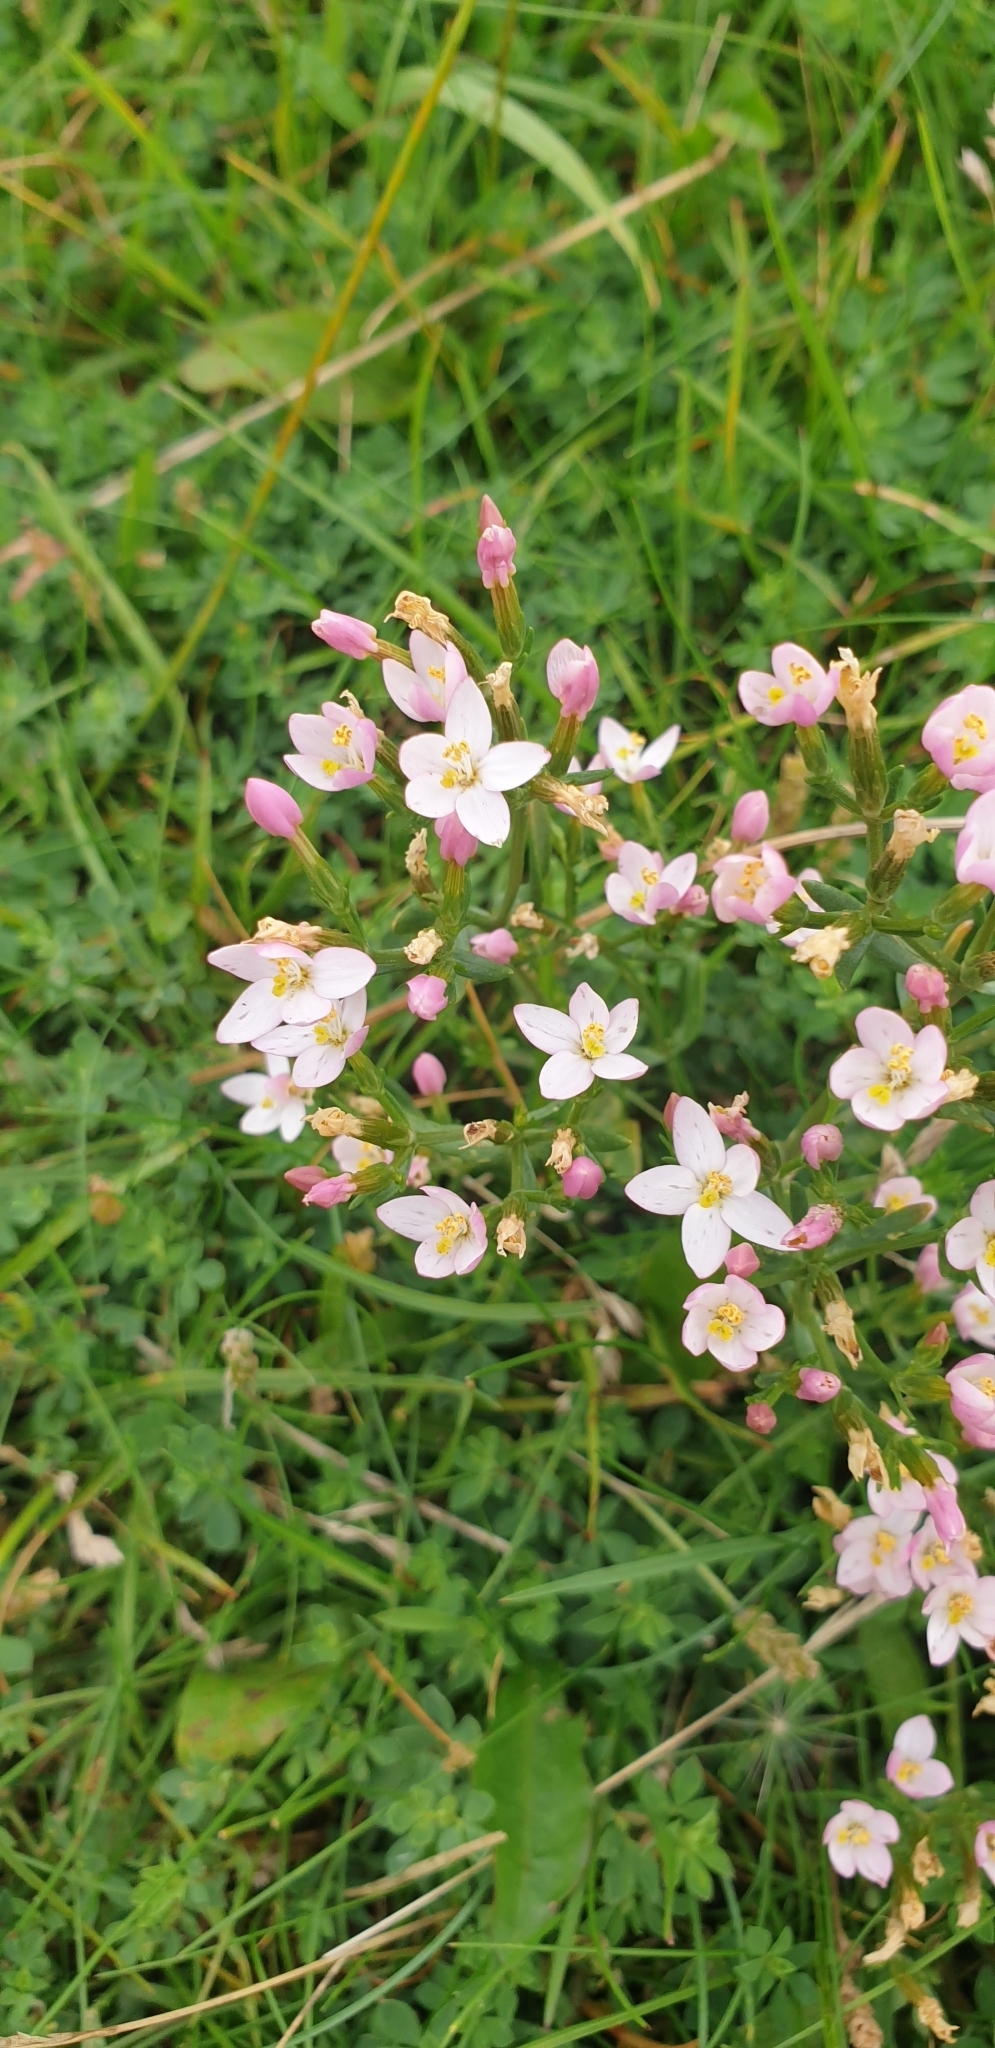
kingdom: Plantae
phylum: Tracheophyta
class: Magnoliopsida
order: Gentianales
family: Gentianaceae
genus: Centaurium
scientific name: Centaurium erythraea
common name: Common centaury
